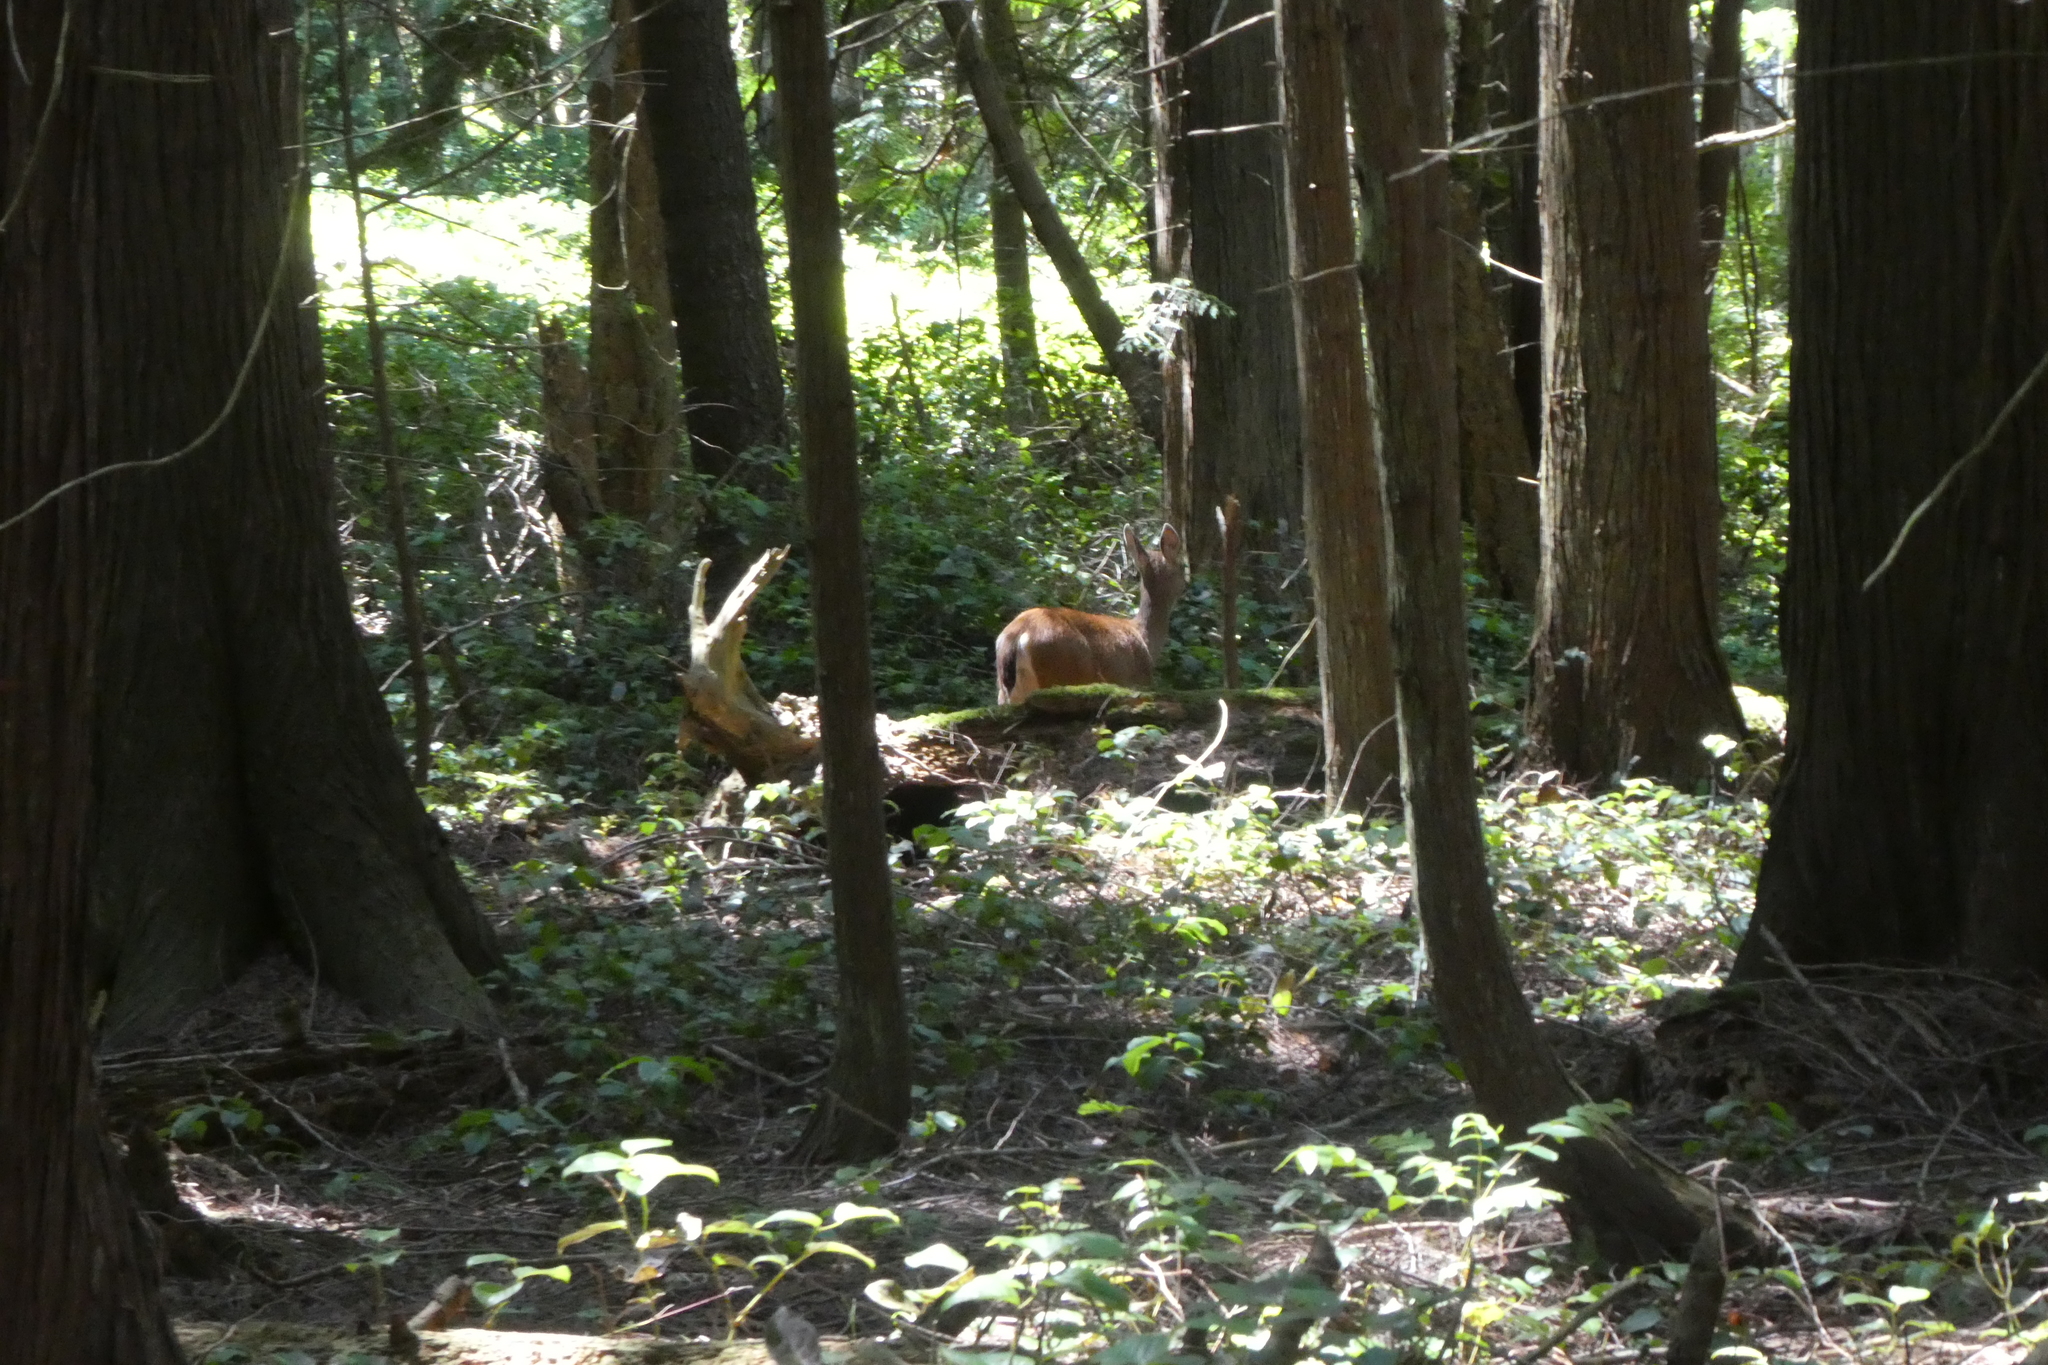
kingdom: Animalia
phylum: Chordata
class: Mammalia
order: Artiodactyla
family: Cervidae
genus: Odocoileus
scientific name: Odocoileus hemionus
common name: Mule deer
